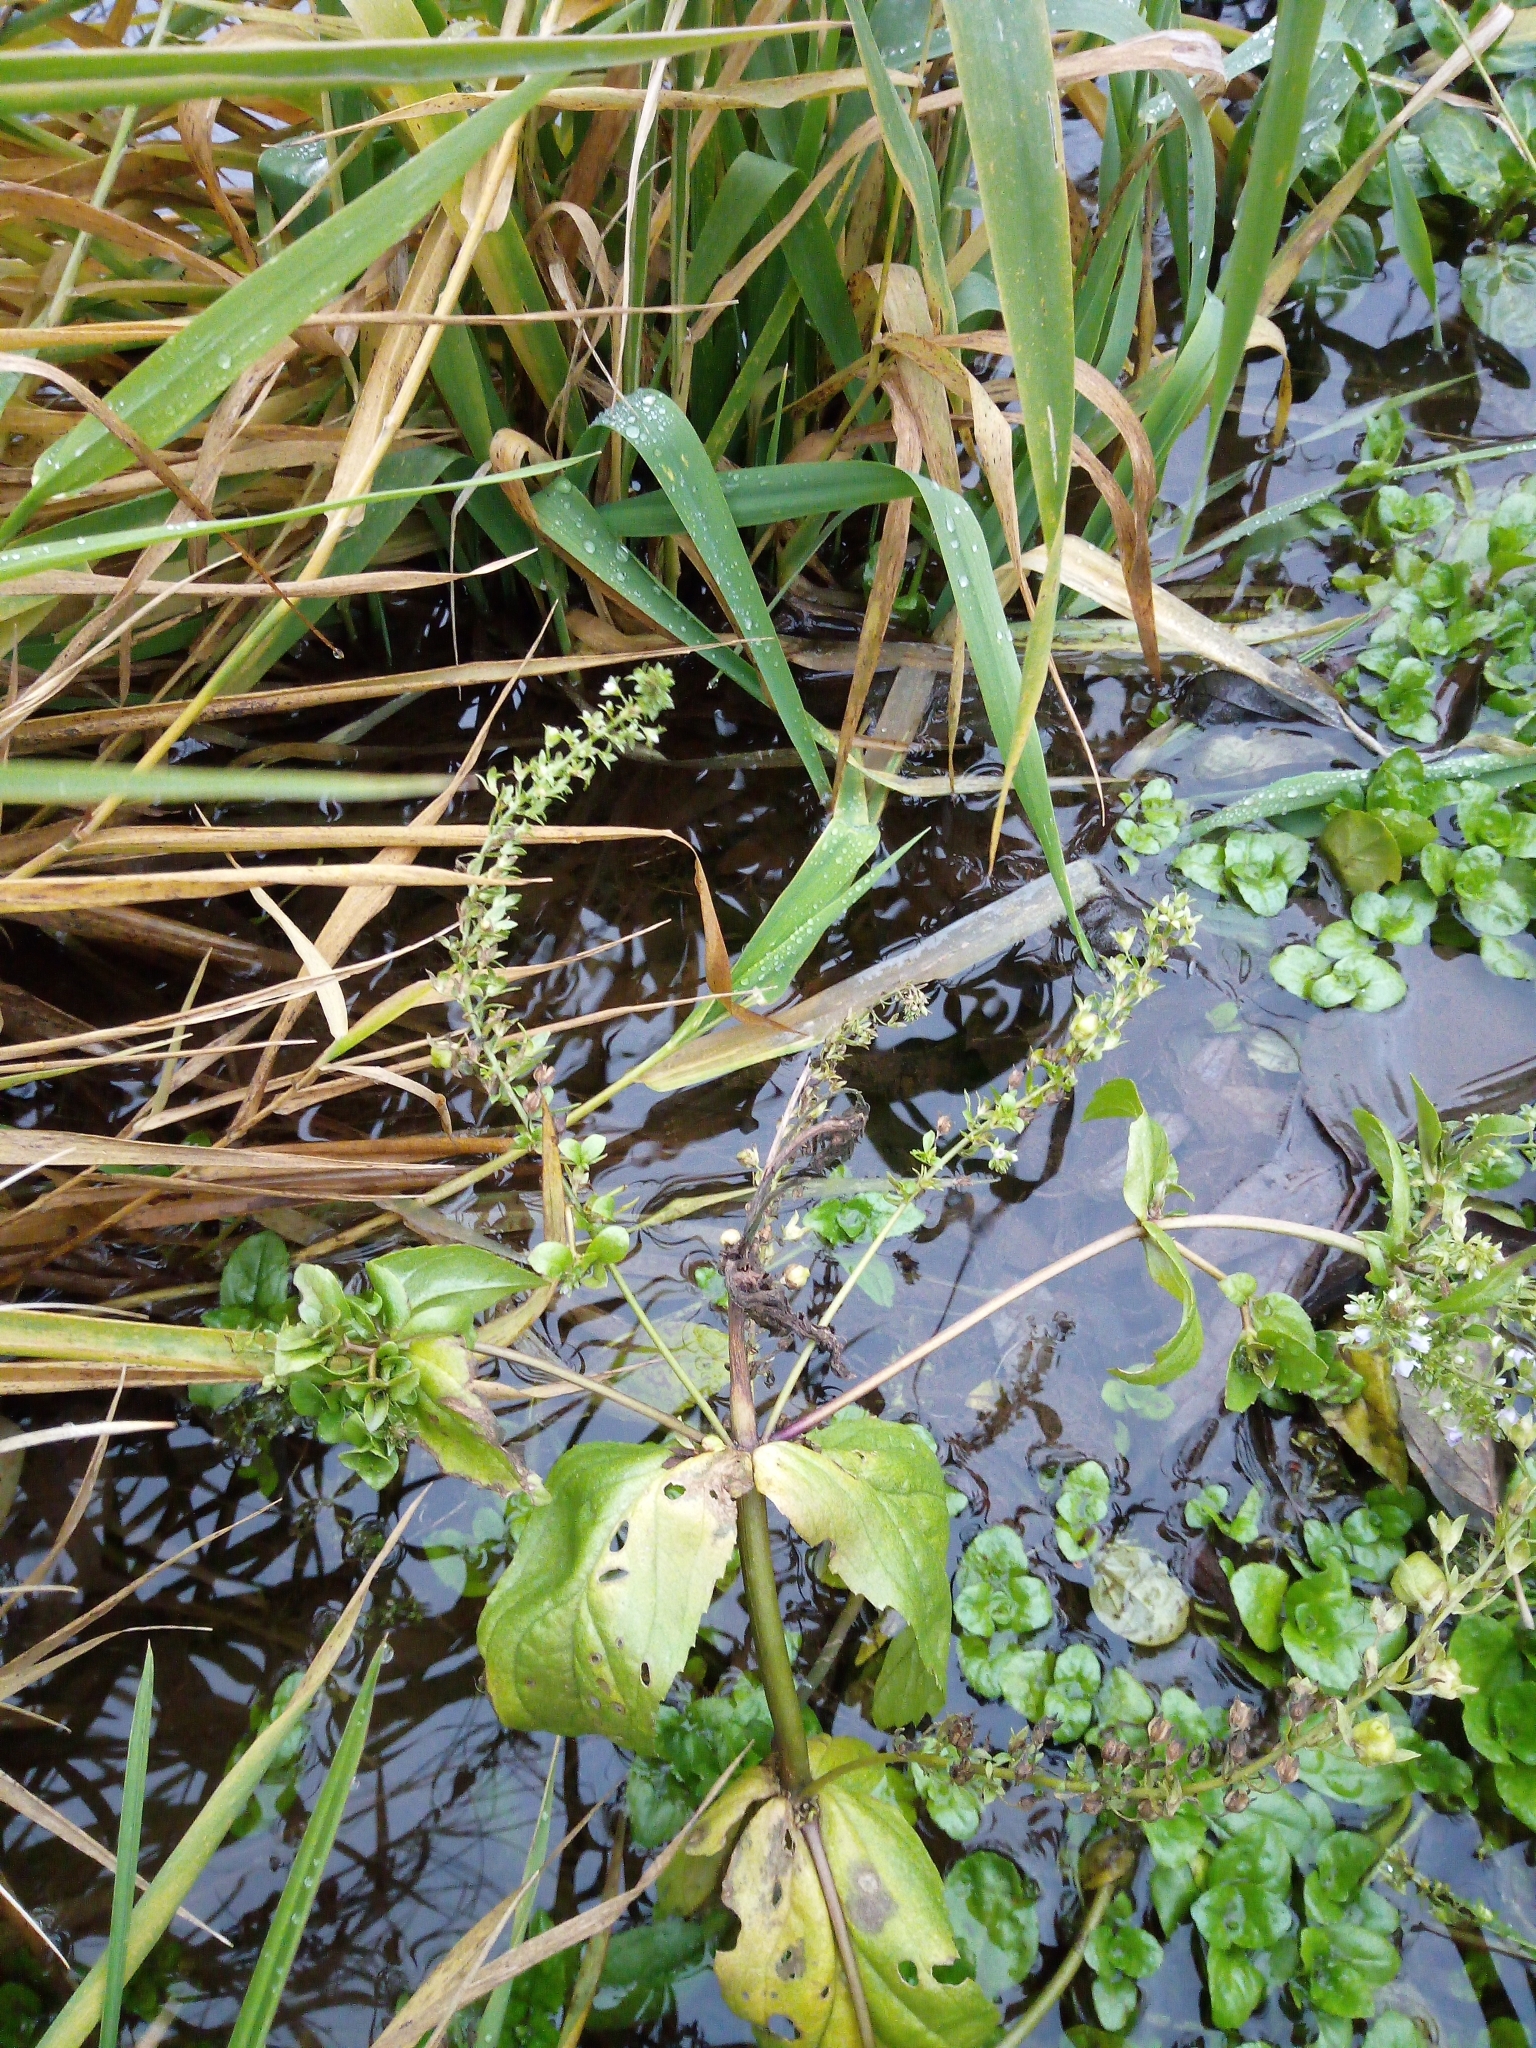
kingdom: Plantae
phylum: Tracheophyta
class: Magnoliopsida
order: Lamiales
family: Plantaginaceae
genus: Veronica
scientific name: Veronica catenata
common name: Pink water-speedwell
